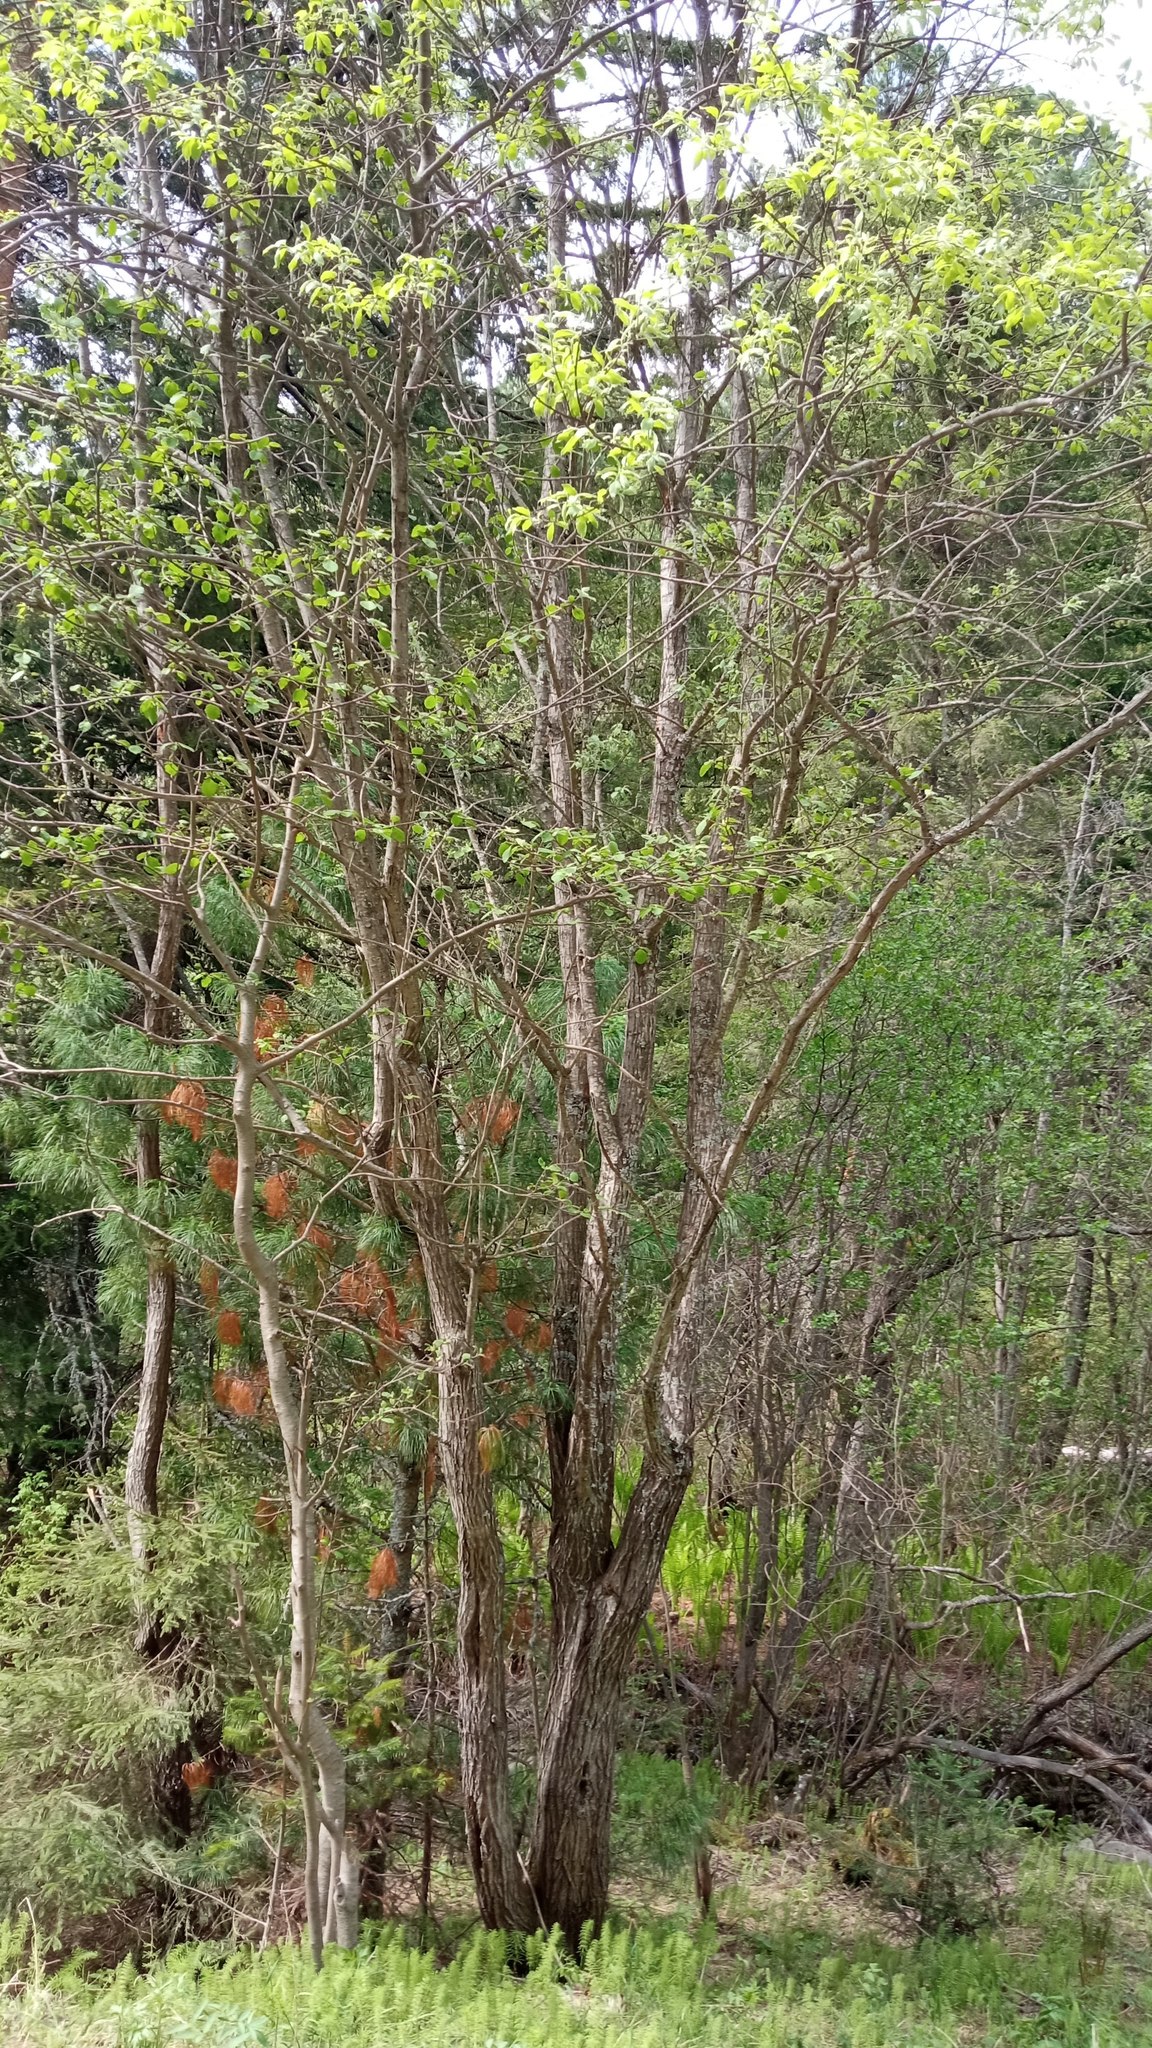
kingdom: Plantae
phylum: Tracheophyta
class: Magnoliopsida
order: Malpighiales
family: Salicaceae
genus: Salix
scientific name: Salix caprea
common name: Goat willow
